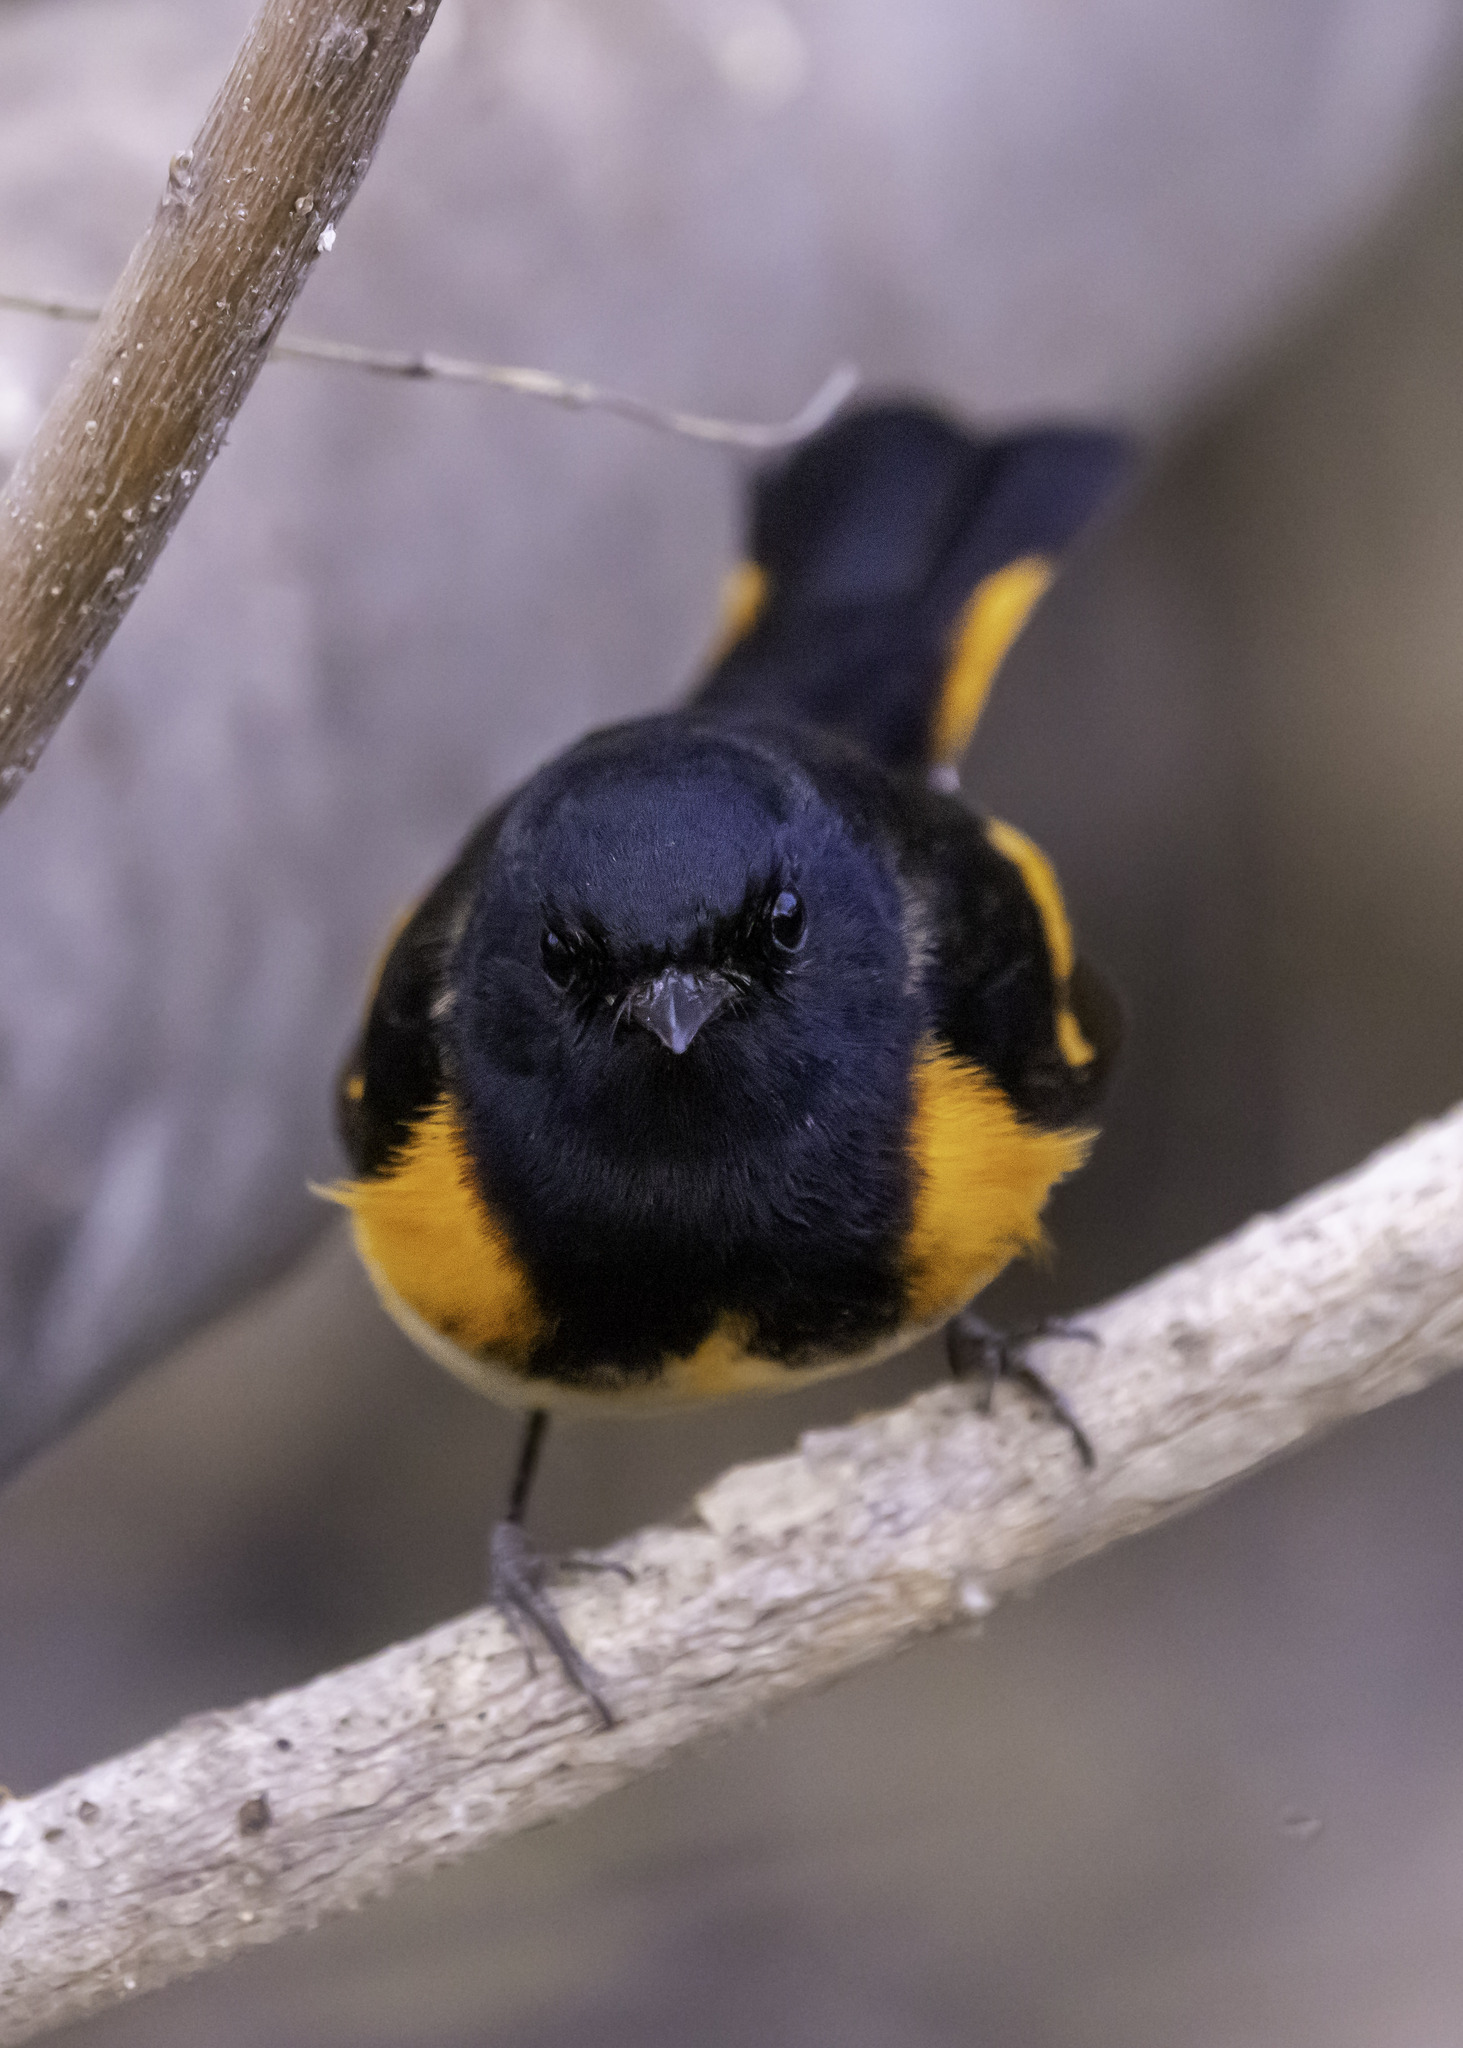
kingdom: Animalia
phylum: Chordata
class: Aves
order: Passeriformes
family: Parulidae
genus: Setophaga
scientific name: Setophaga ruticilla
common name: American redstart
